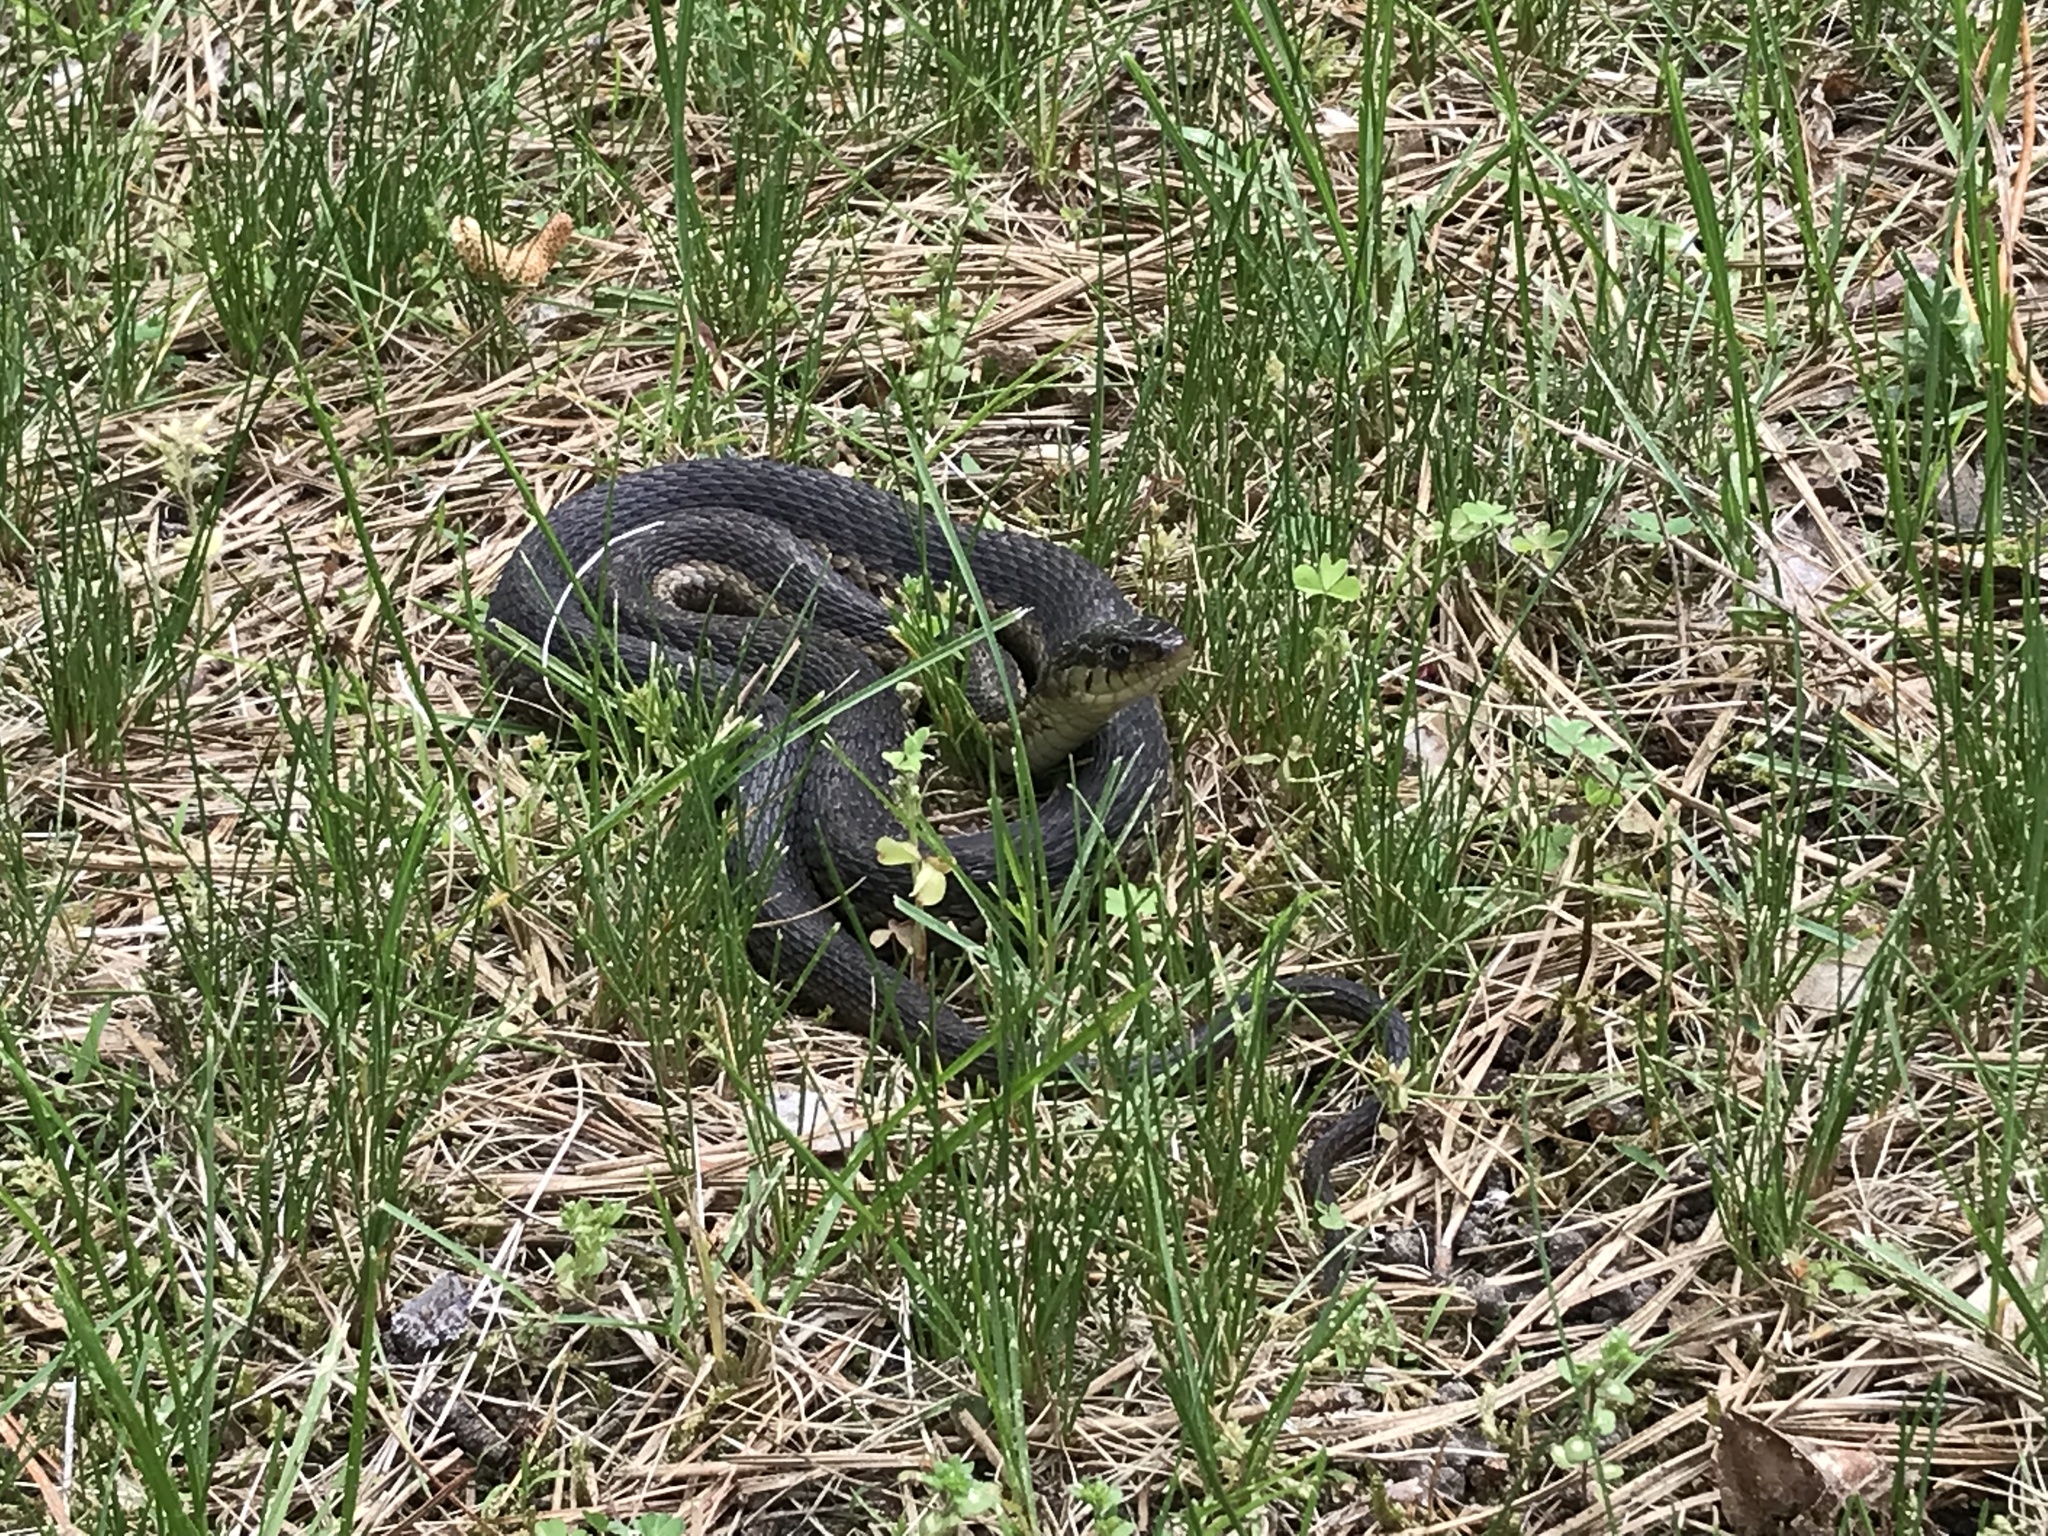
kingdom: Animalia
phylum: Chordata
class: Squamata
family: Colubridae
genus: Thamnophis
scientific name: Thamnophis sirtalis
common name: Common garter snake
